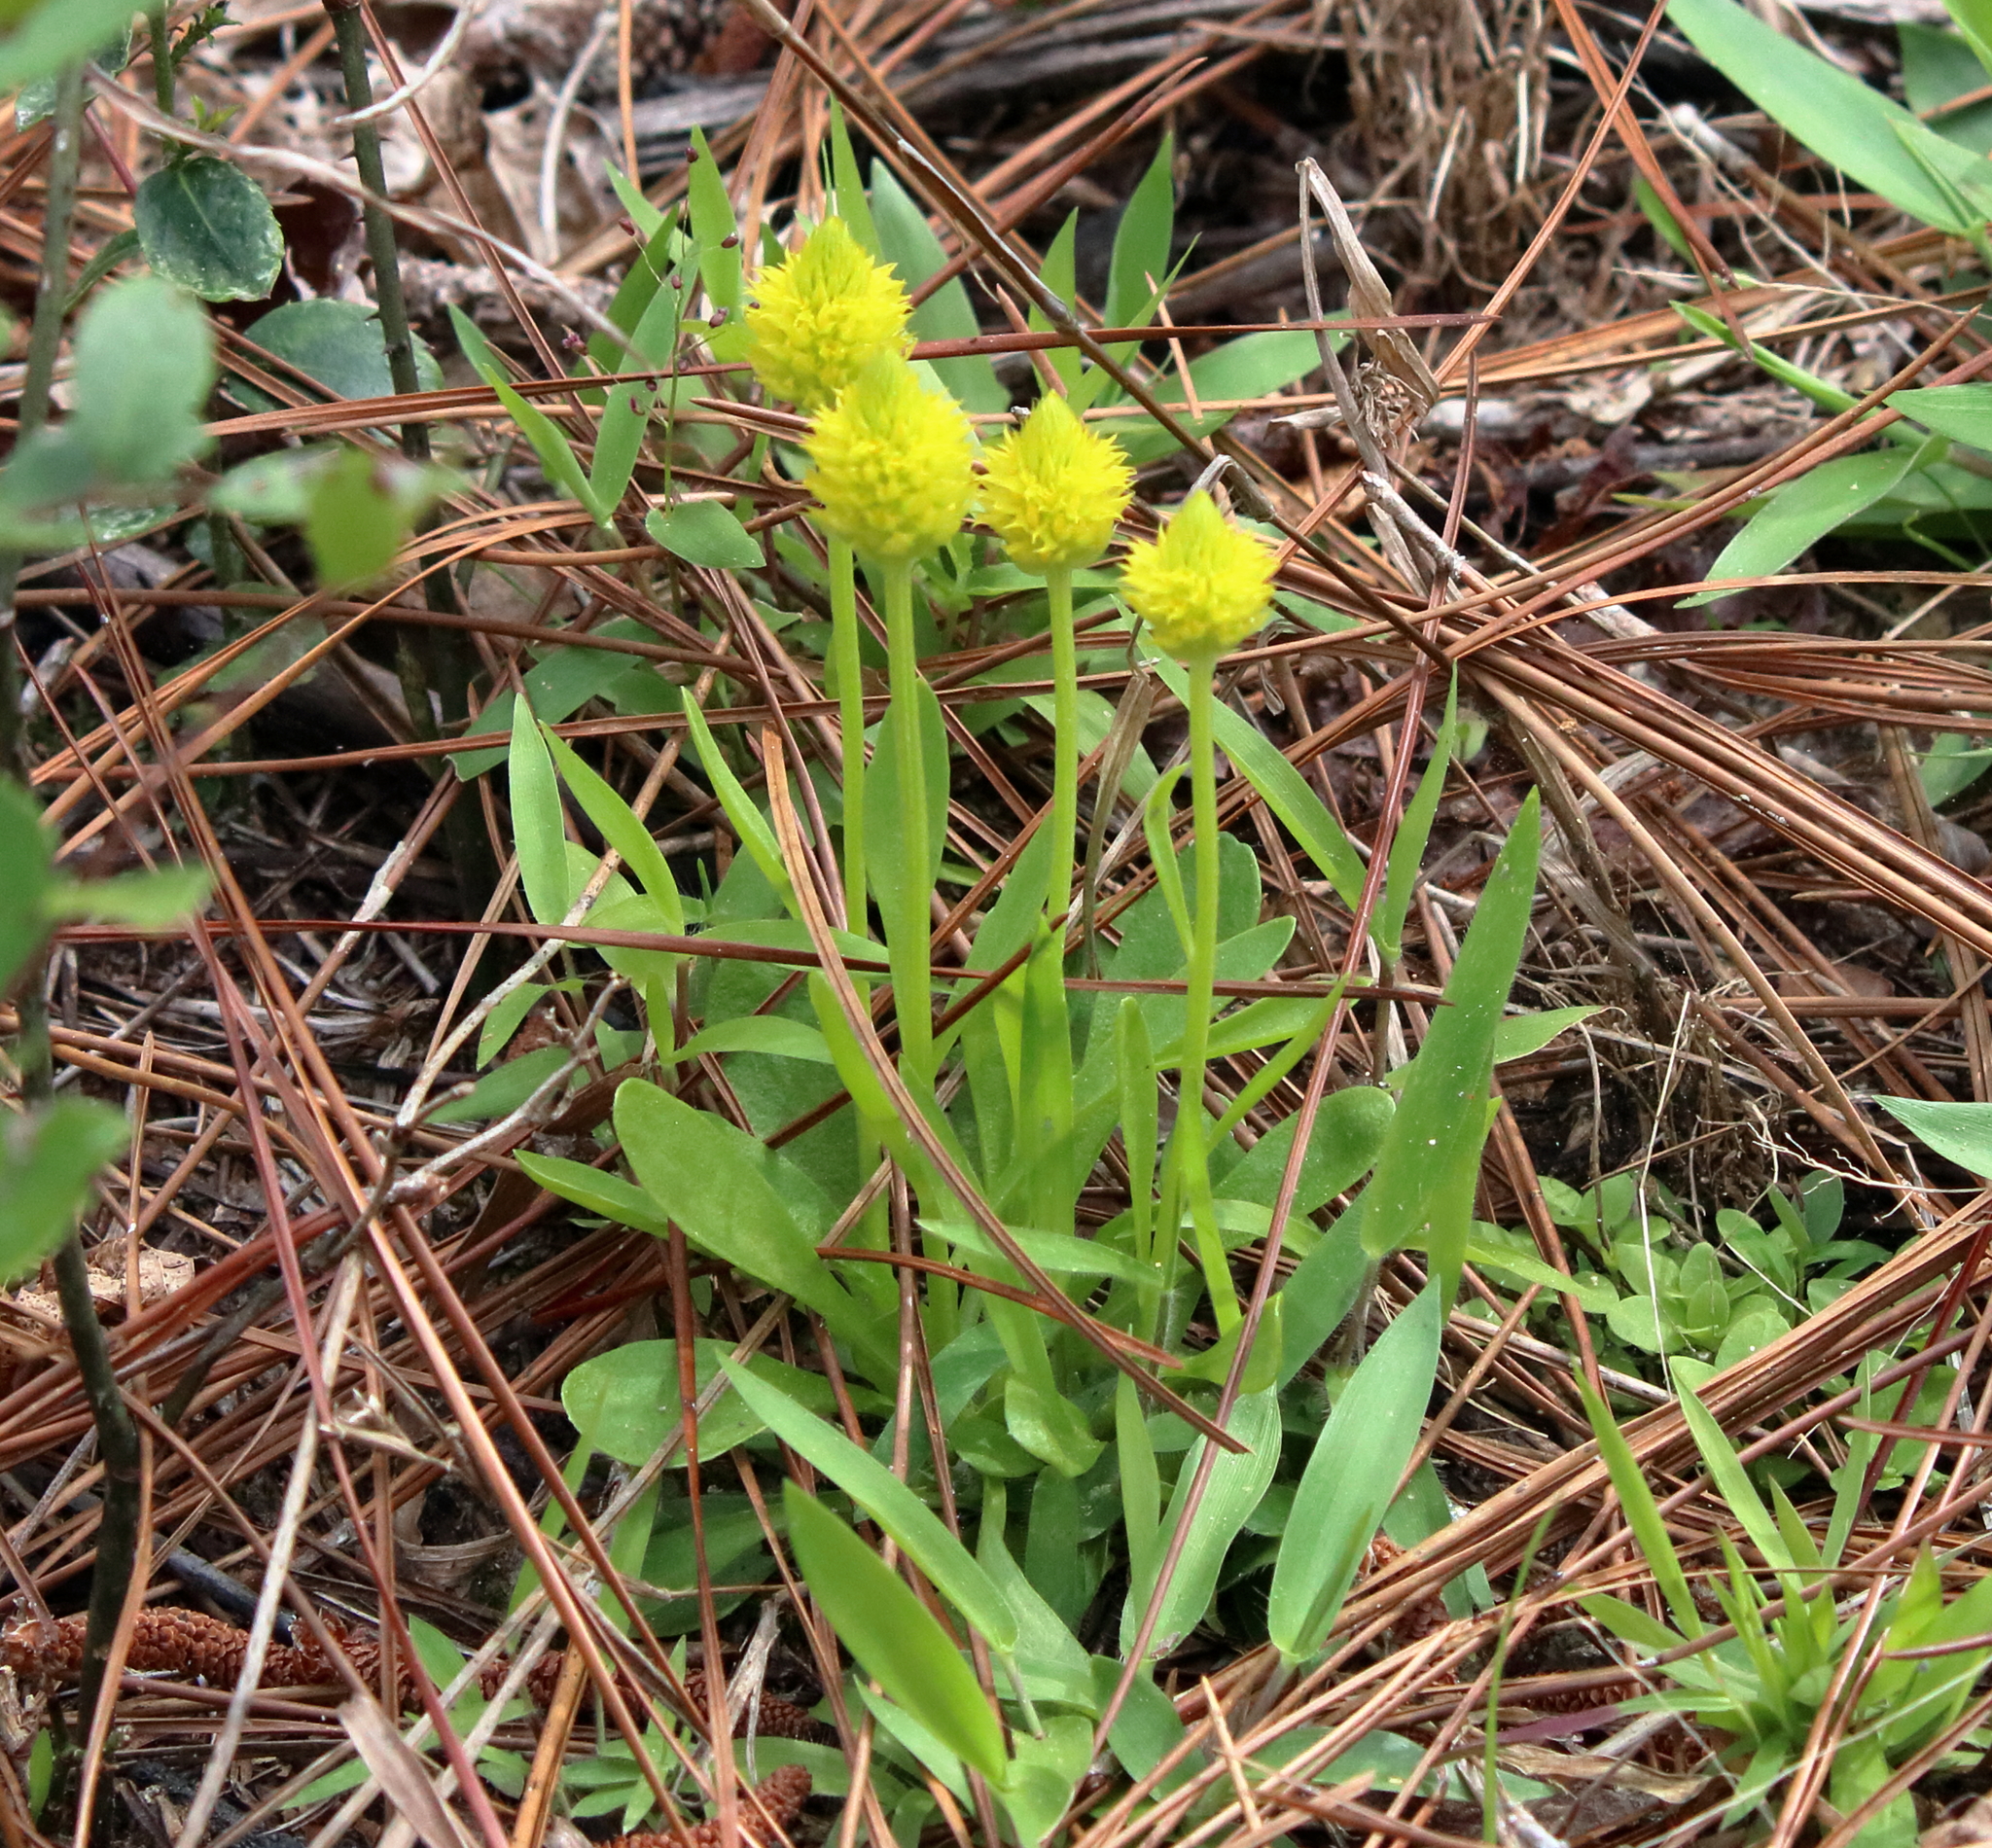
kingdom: Plantae
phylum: Tracheophyta
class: Magnoliopsida
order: Fabales
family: Polygalaceae
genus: Polygala
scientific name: Polygala nana
